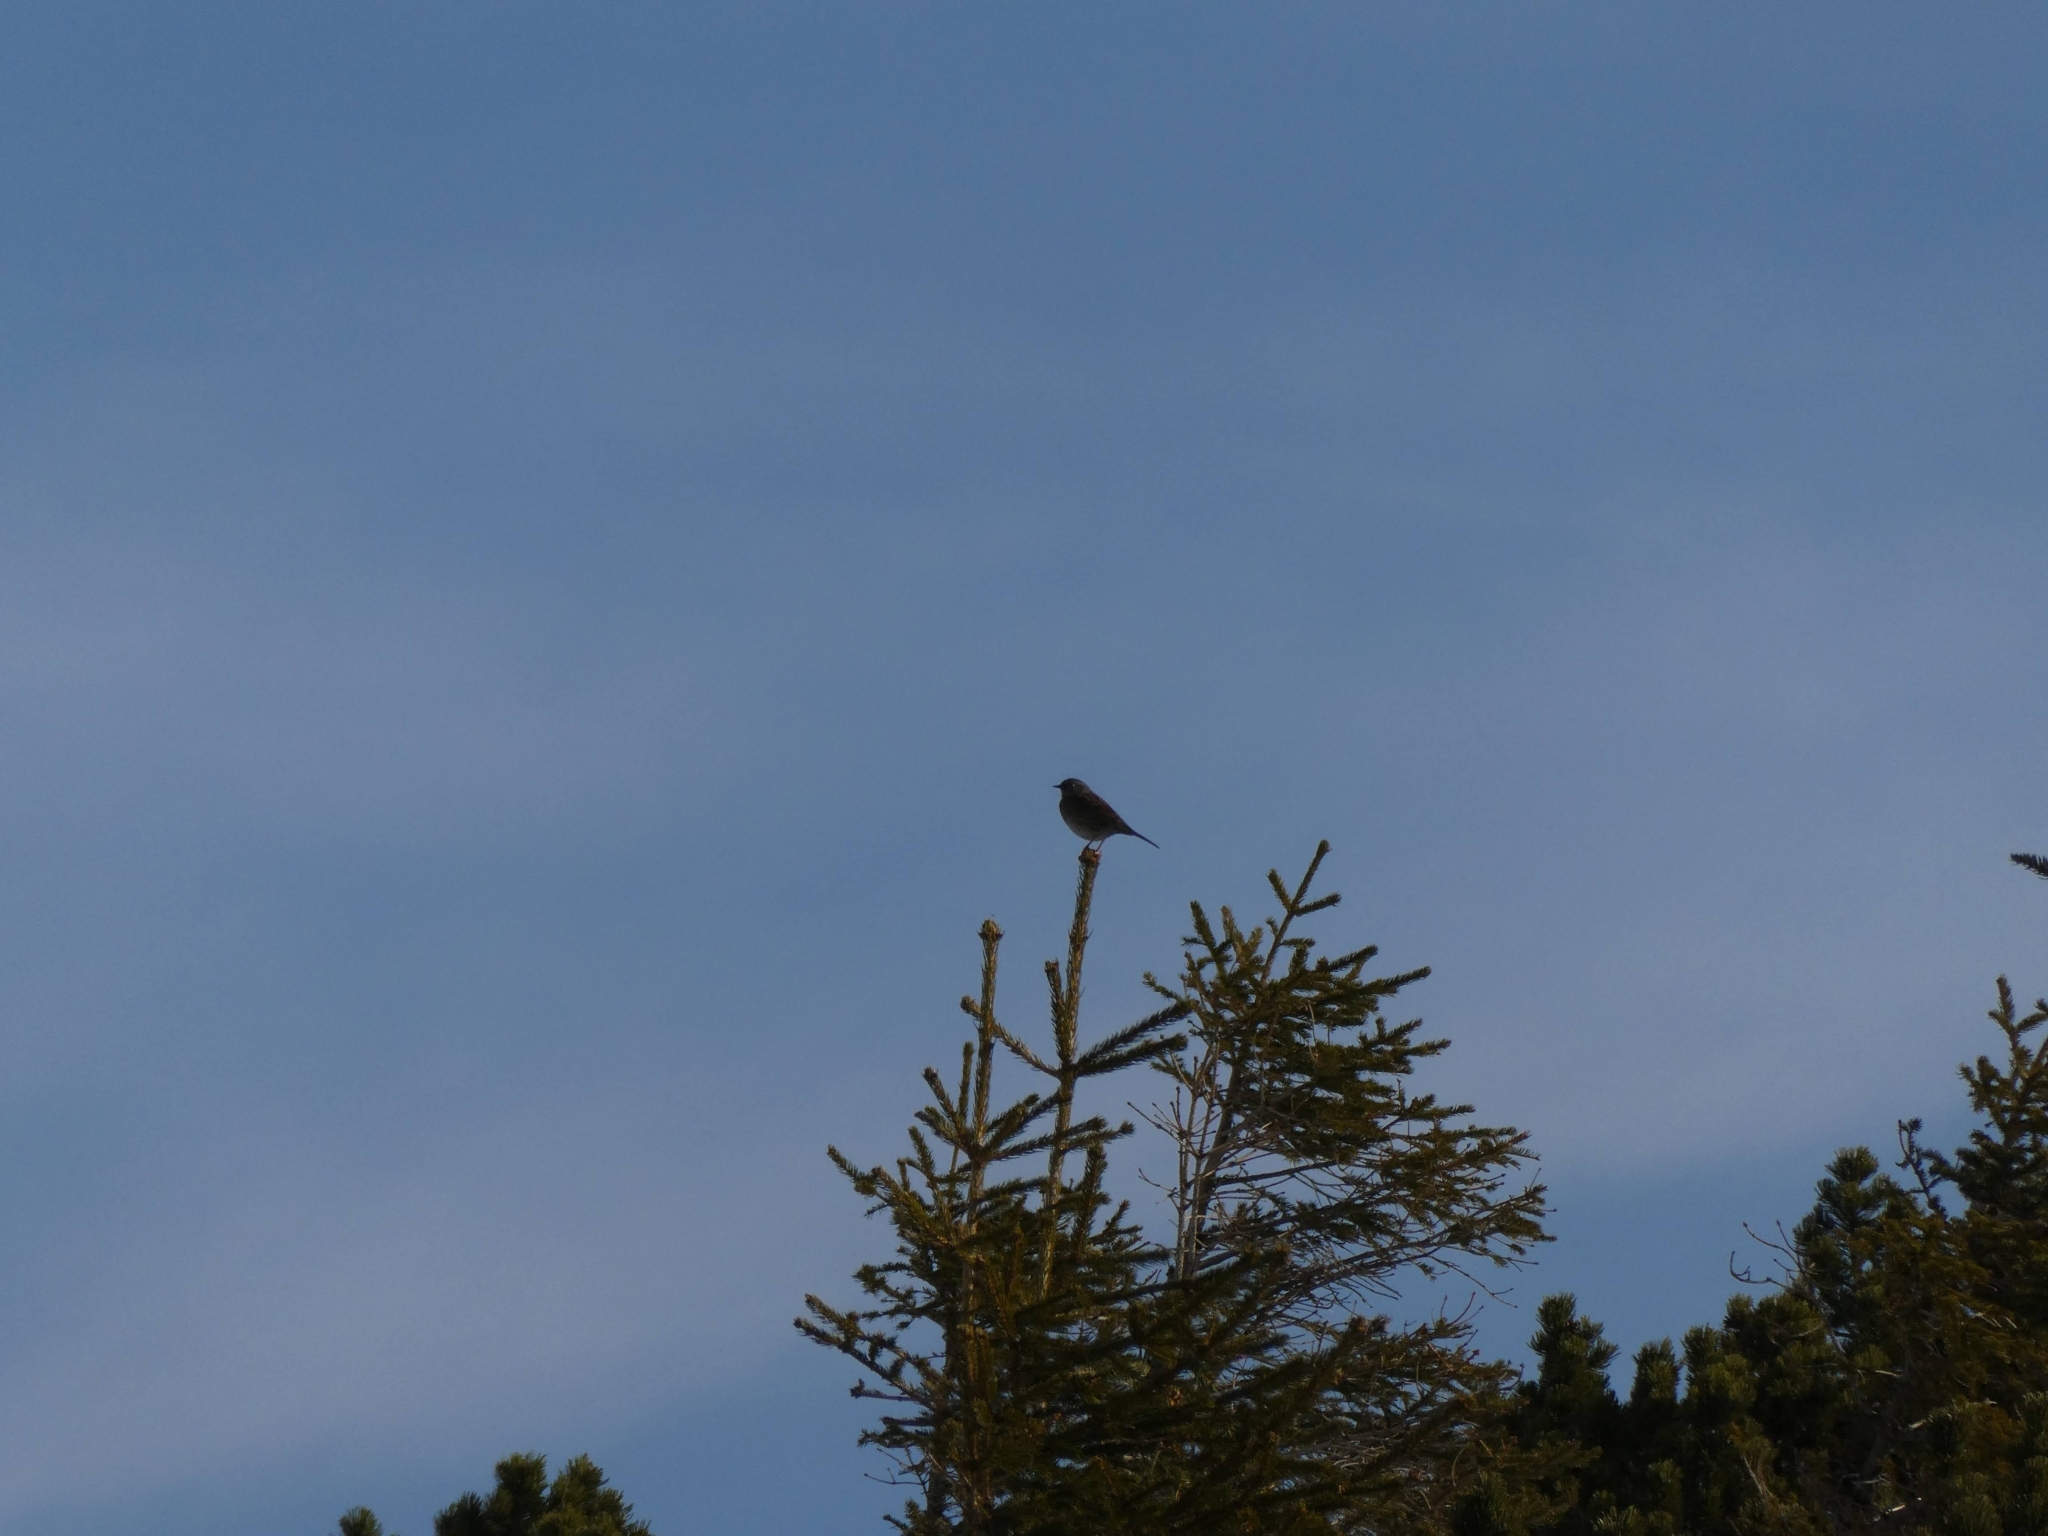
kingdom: Animalia
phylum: Chordata
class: Aves
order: Passeriformes
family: Prunellidae
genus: Prunella
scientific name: Prunella modularis
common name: Dunnock
